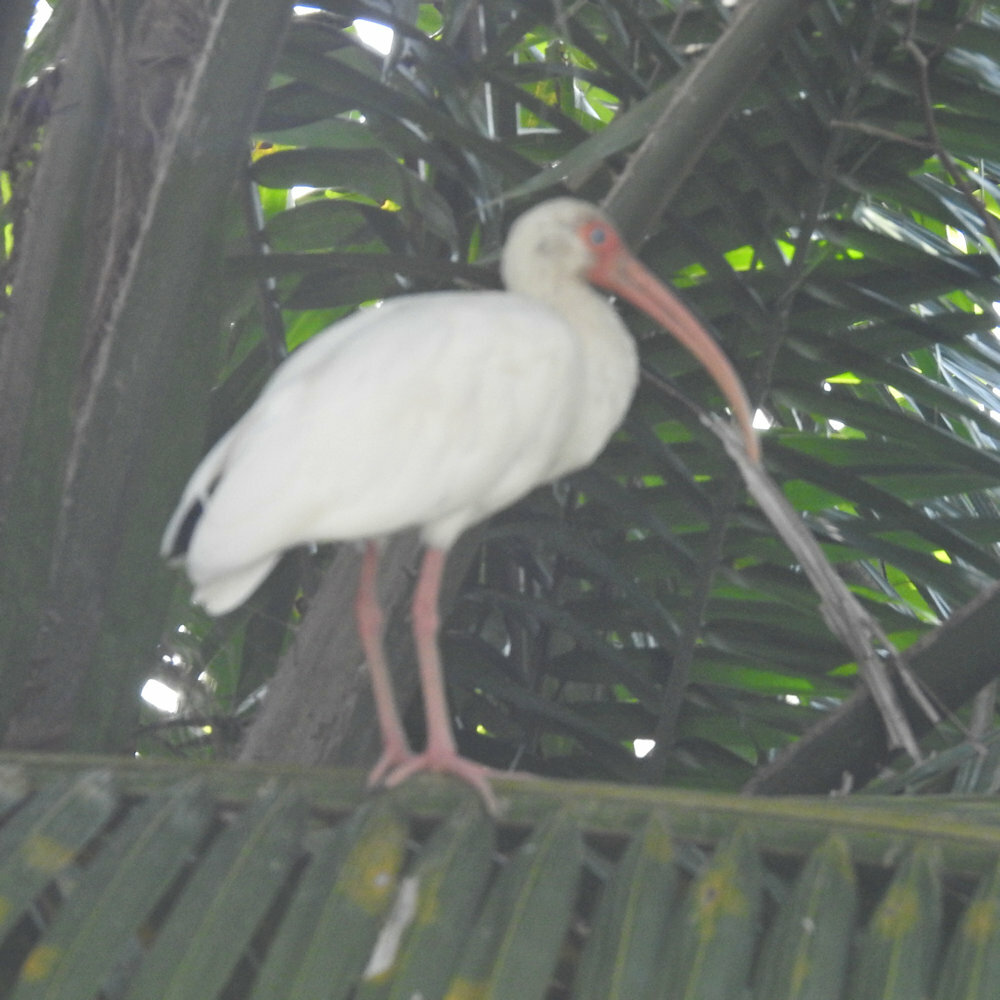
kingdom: Animalia
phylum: Chordata
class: Aves
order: Pelecaniformes
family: Threskiornithidae
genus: Eudocimus
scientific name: Eudocimus albus
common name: White ibis
